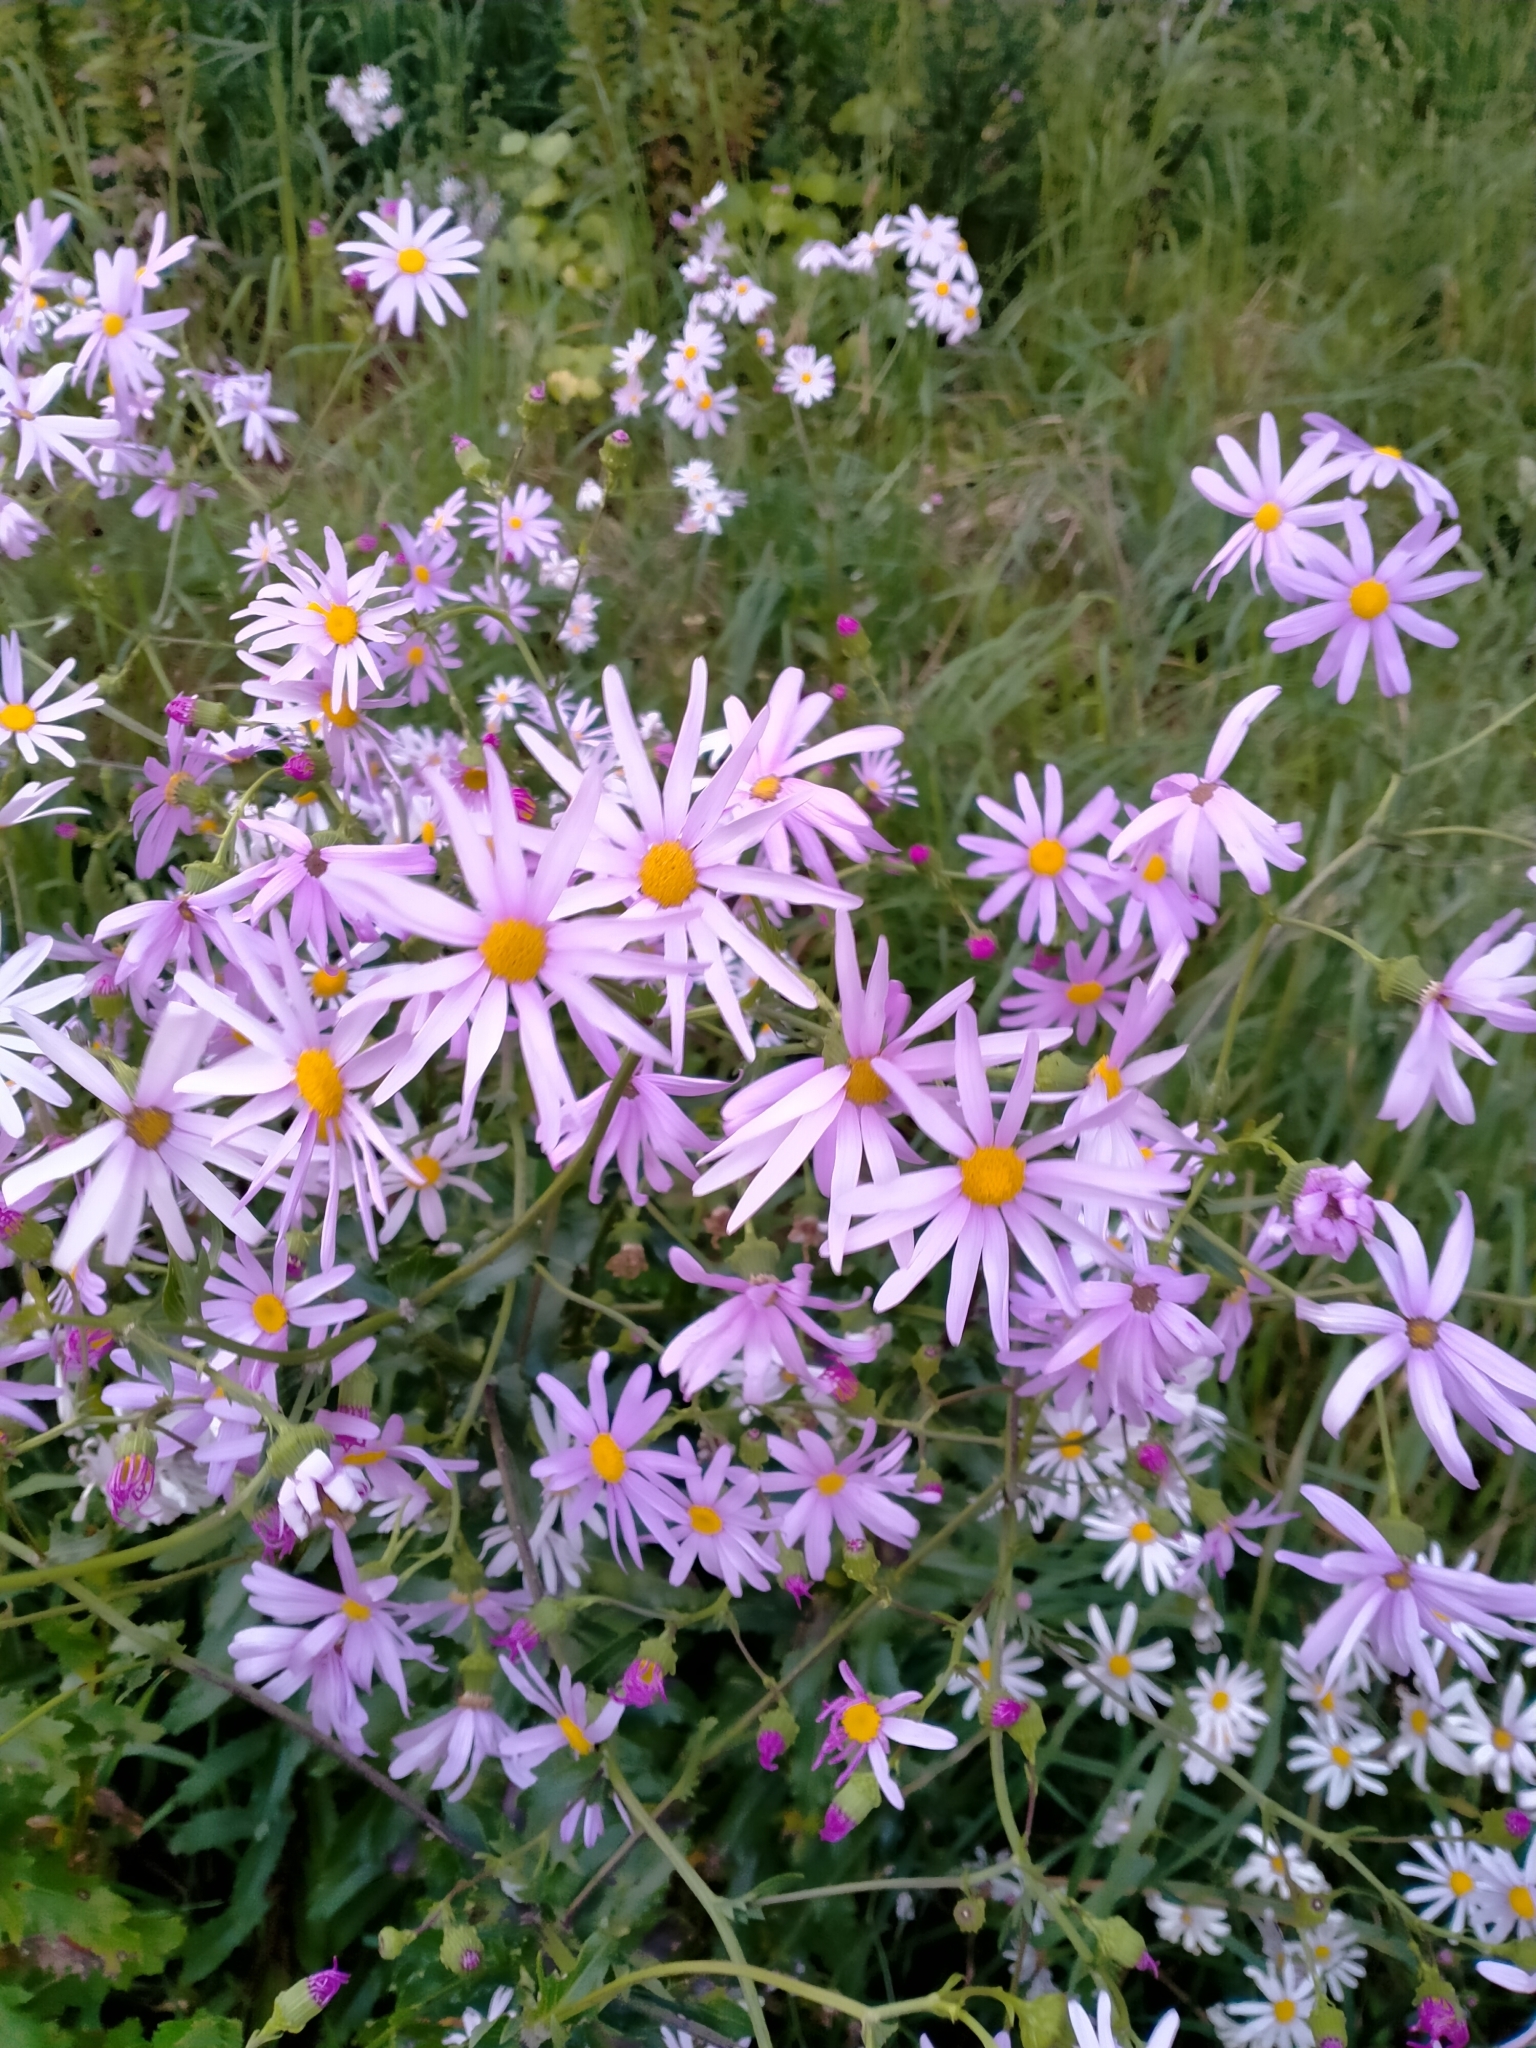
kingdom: Plantae
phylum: Tracheophyta
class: Magnoliopsida
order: Asterales
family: Asteraceae
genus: Senecio
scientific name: Senecio glastifolius
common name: Woad-leaved ragwort
